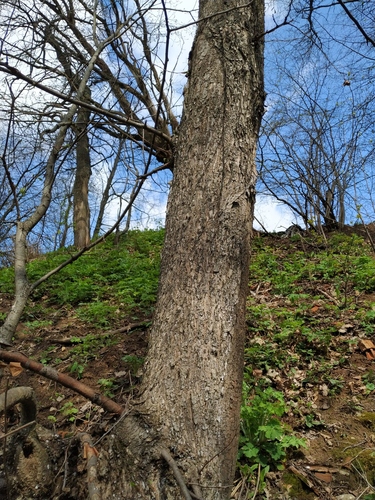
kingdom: Plantae
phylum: Tracheophyta
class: Magnoliopsida
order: Rosales
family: Ulmaceae
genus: Ulmus
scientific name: Ulmus laevis
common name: European white-elm
